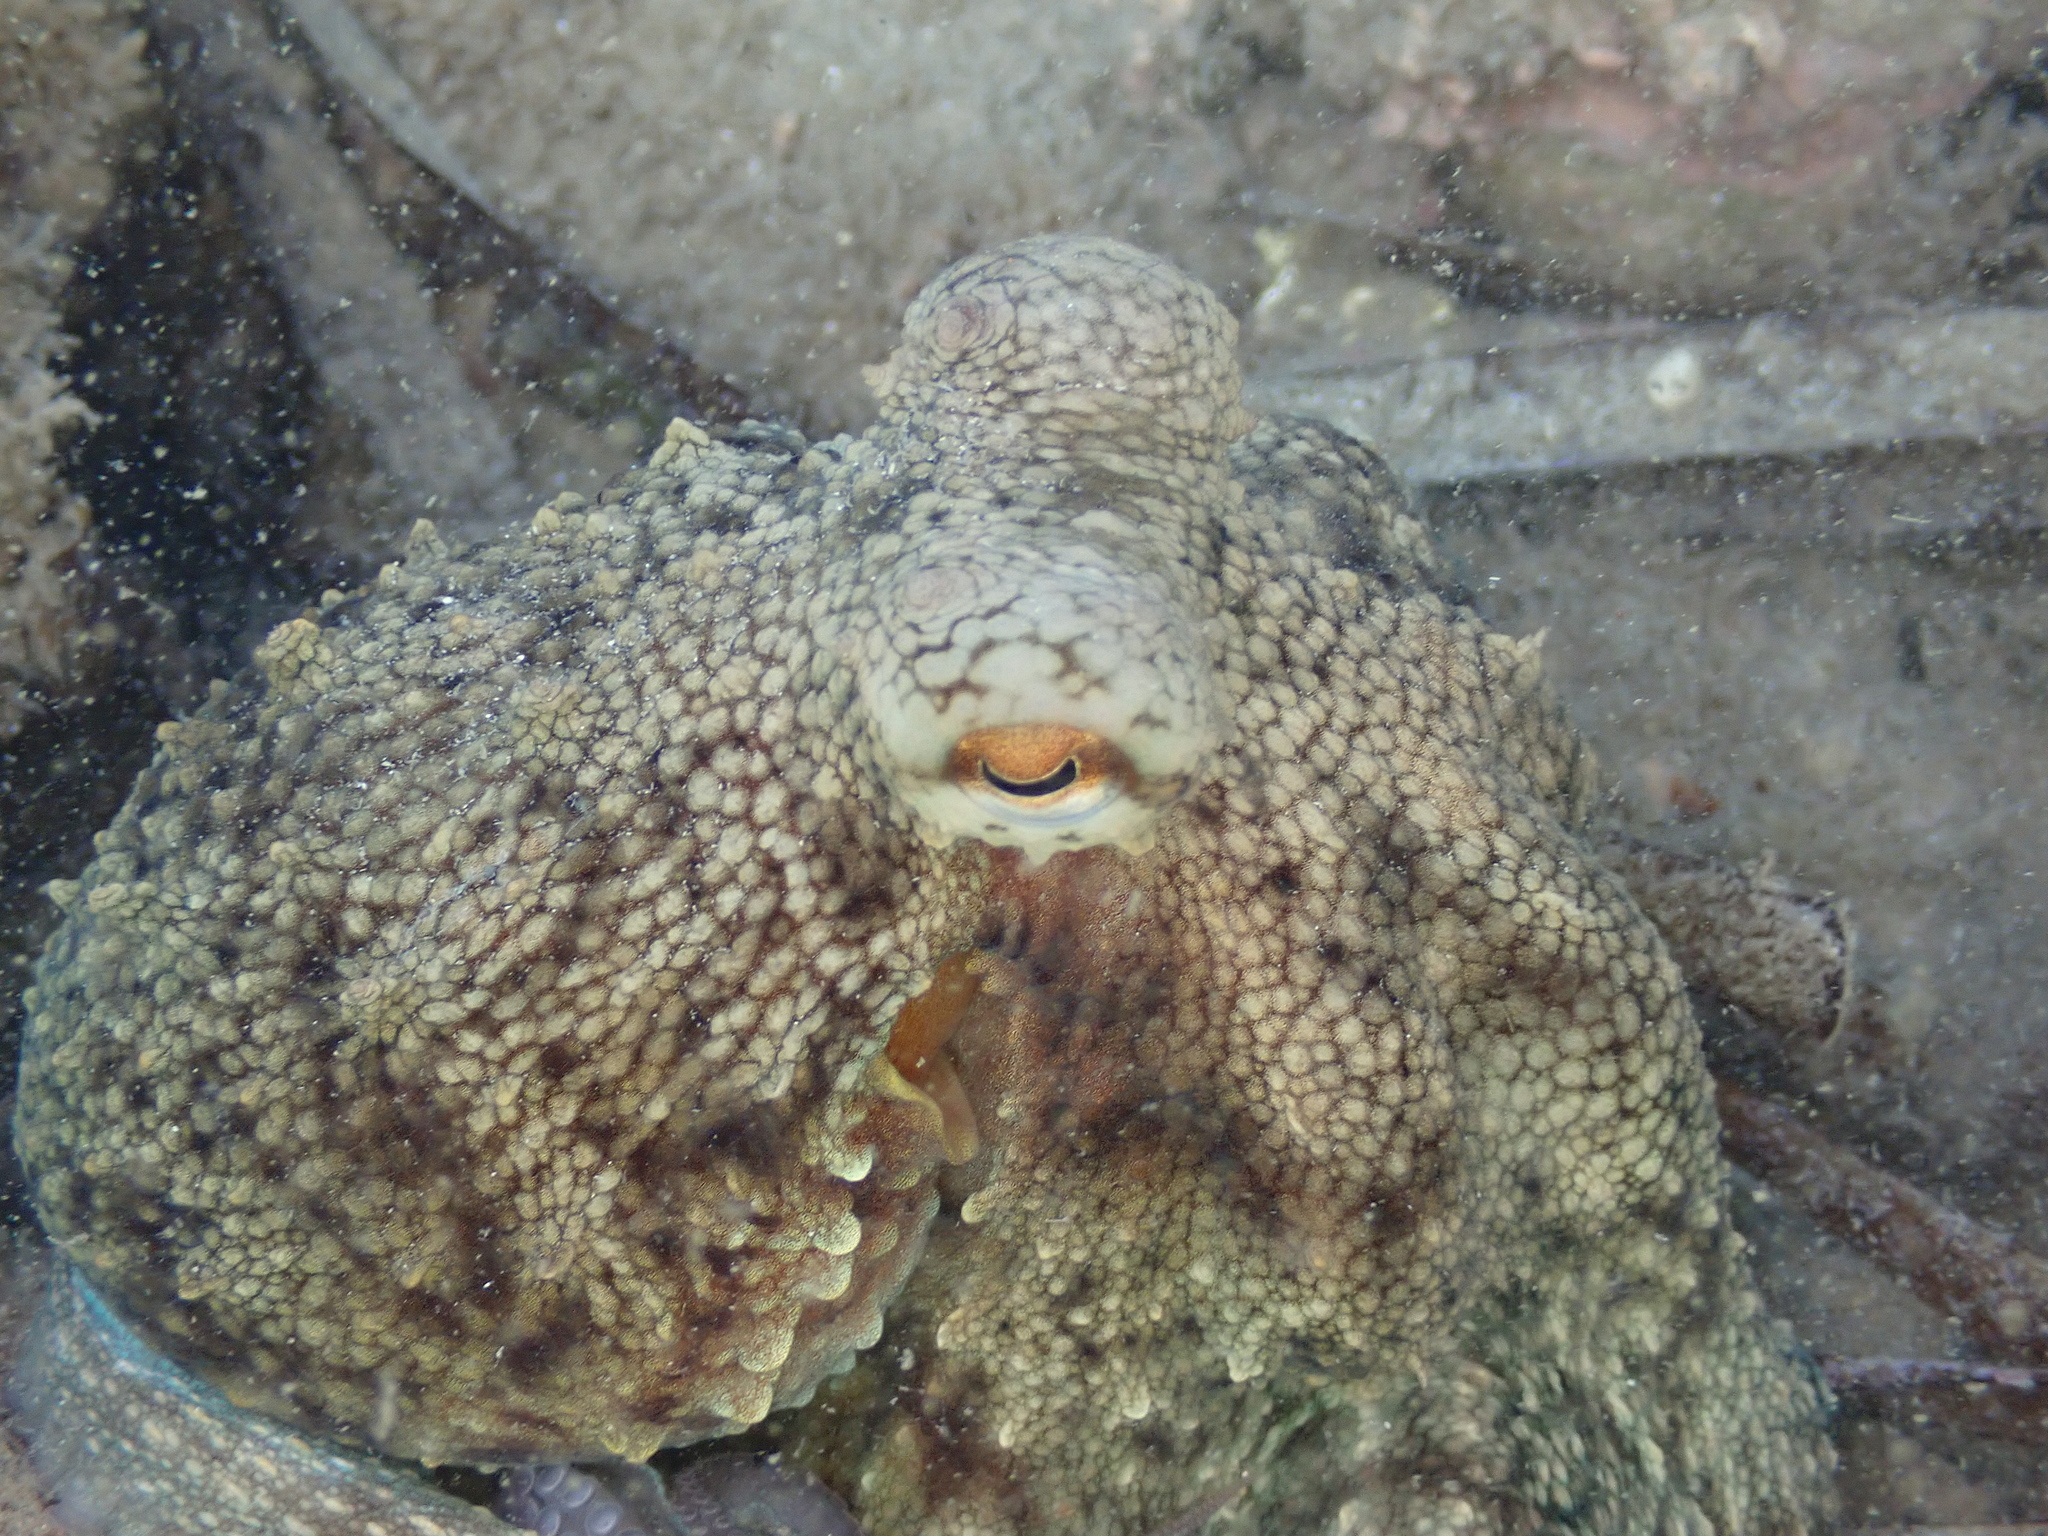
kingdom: Animalia
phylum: Mollusca
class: Cephalopoda
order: Octopoda
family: Octopodidae
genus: Octopus
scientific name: Octopus vulgaris
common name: Common octopus
